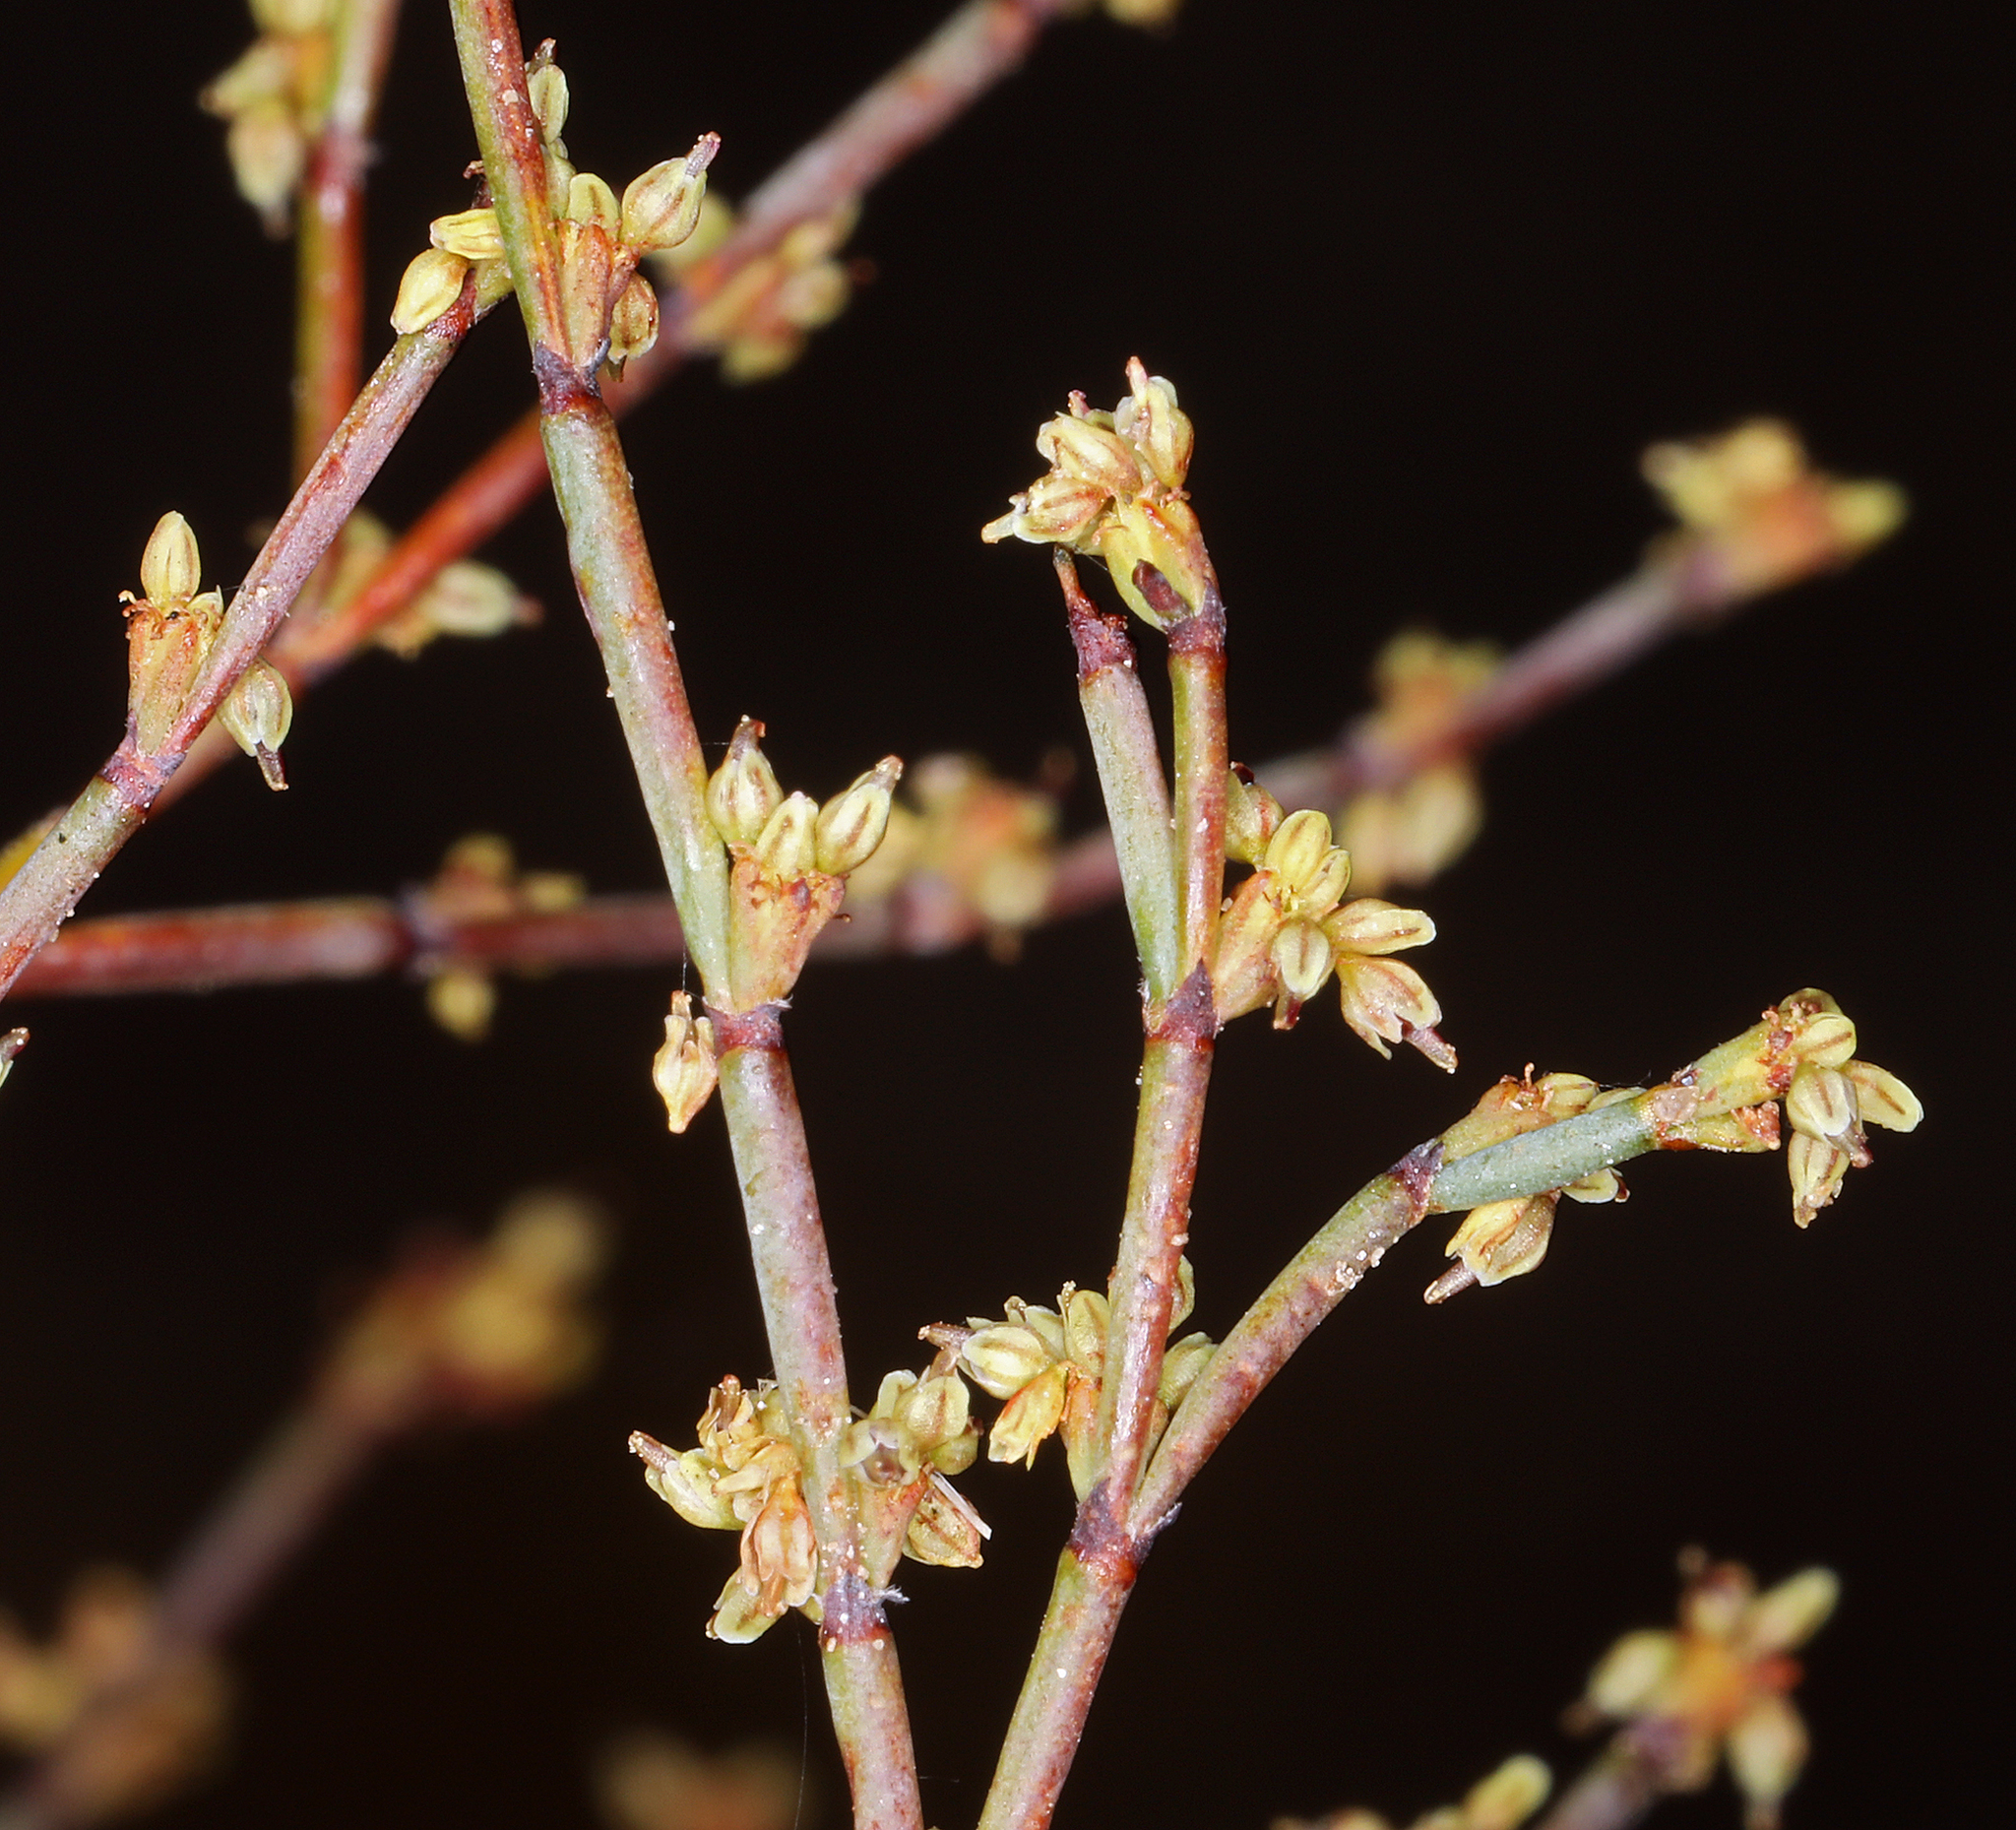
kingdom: Plantae
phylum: Tracheophyta
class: Magnoliopsida
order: Caryophyllales
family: Polygonaceae
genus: Eriogonum
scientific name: Eriogonum brachyanthum
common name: Short-flower wild buckwheat
